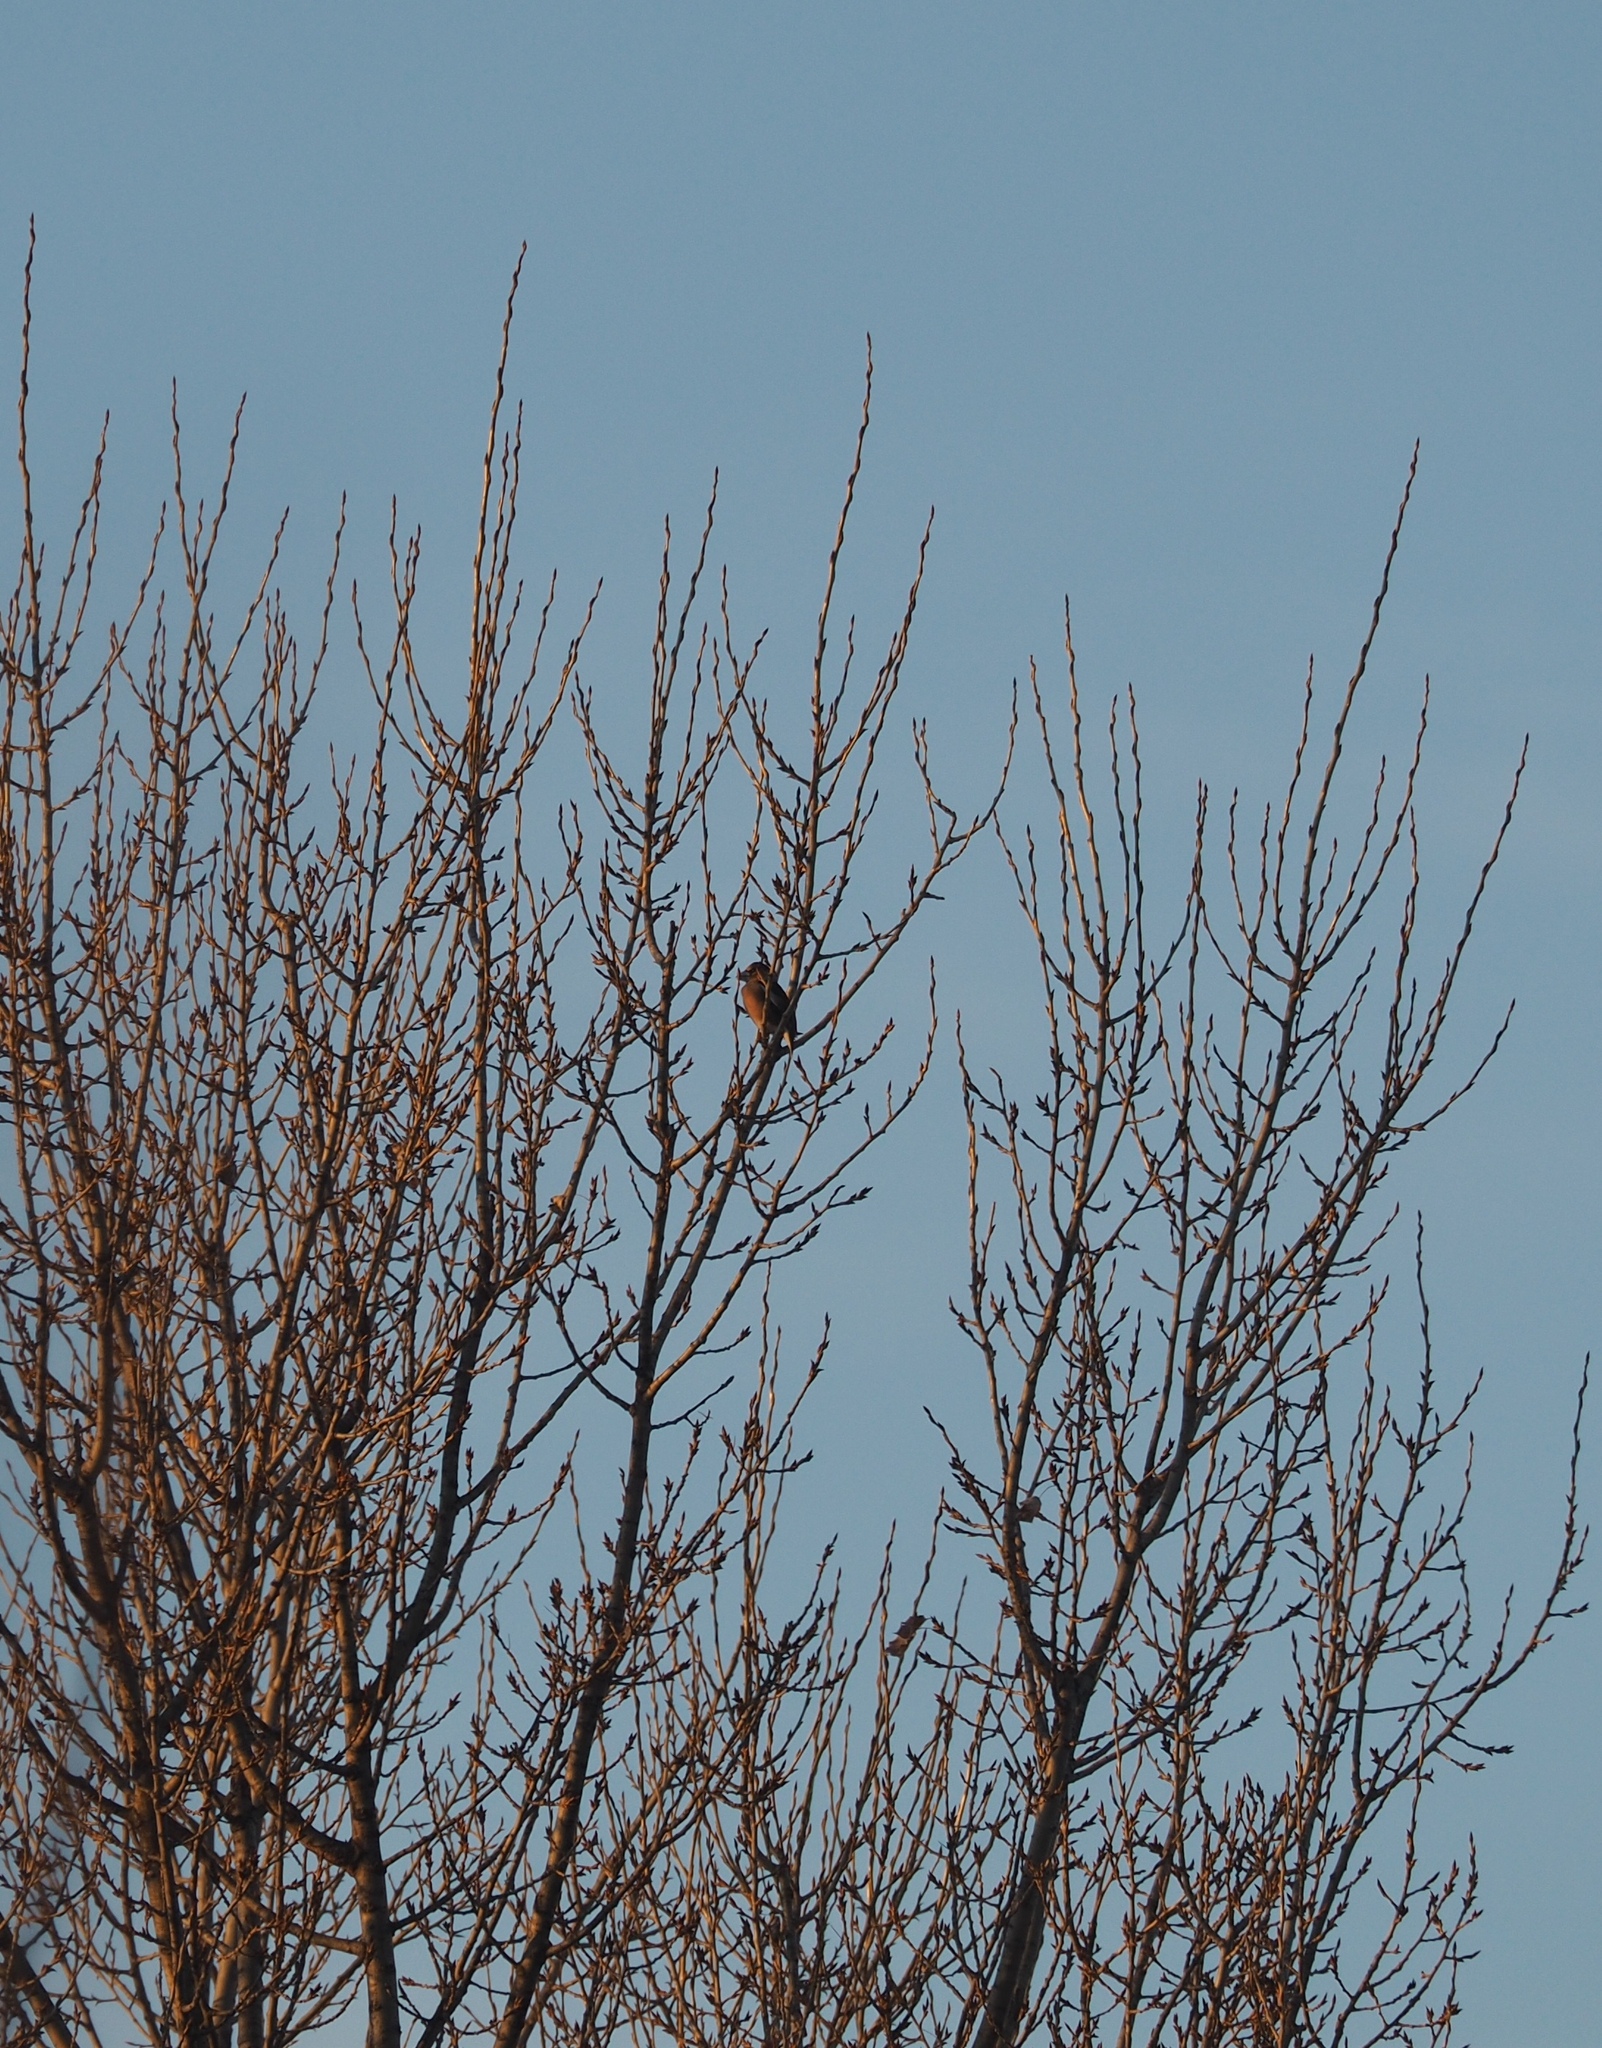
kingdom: Animalia
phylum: Chordata
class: Aves
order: Passeriformes
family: Fringillidae
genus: Coccothraustes
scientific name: Coccothraustes coccothraustes
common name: Hawfinch
